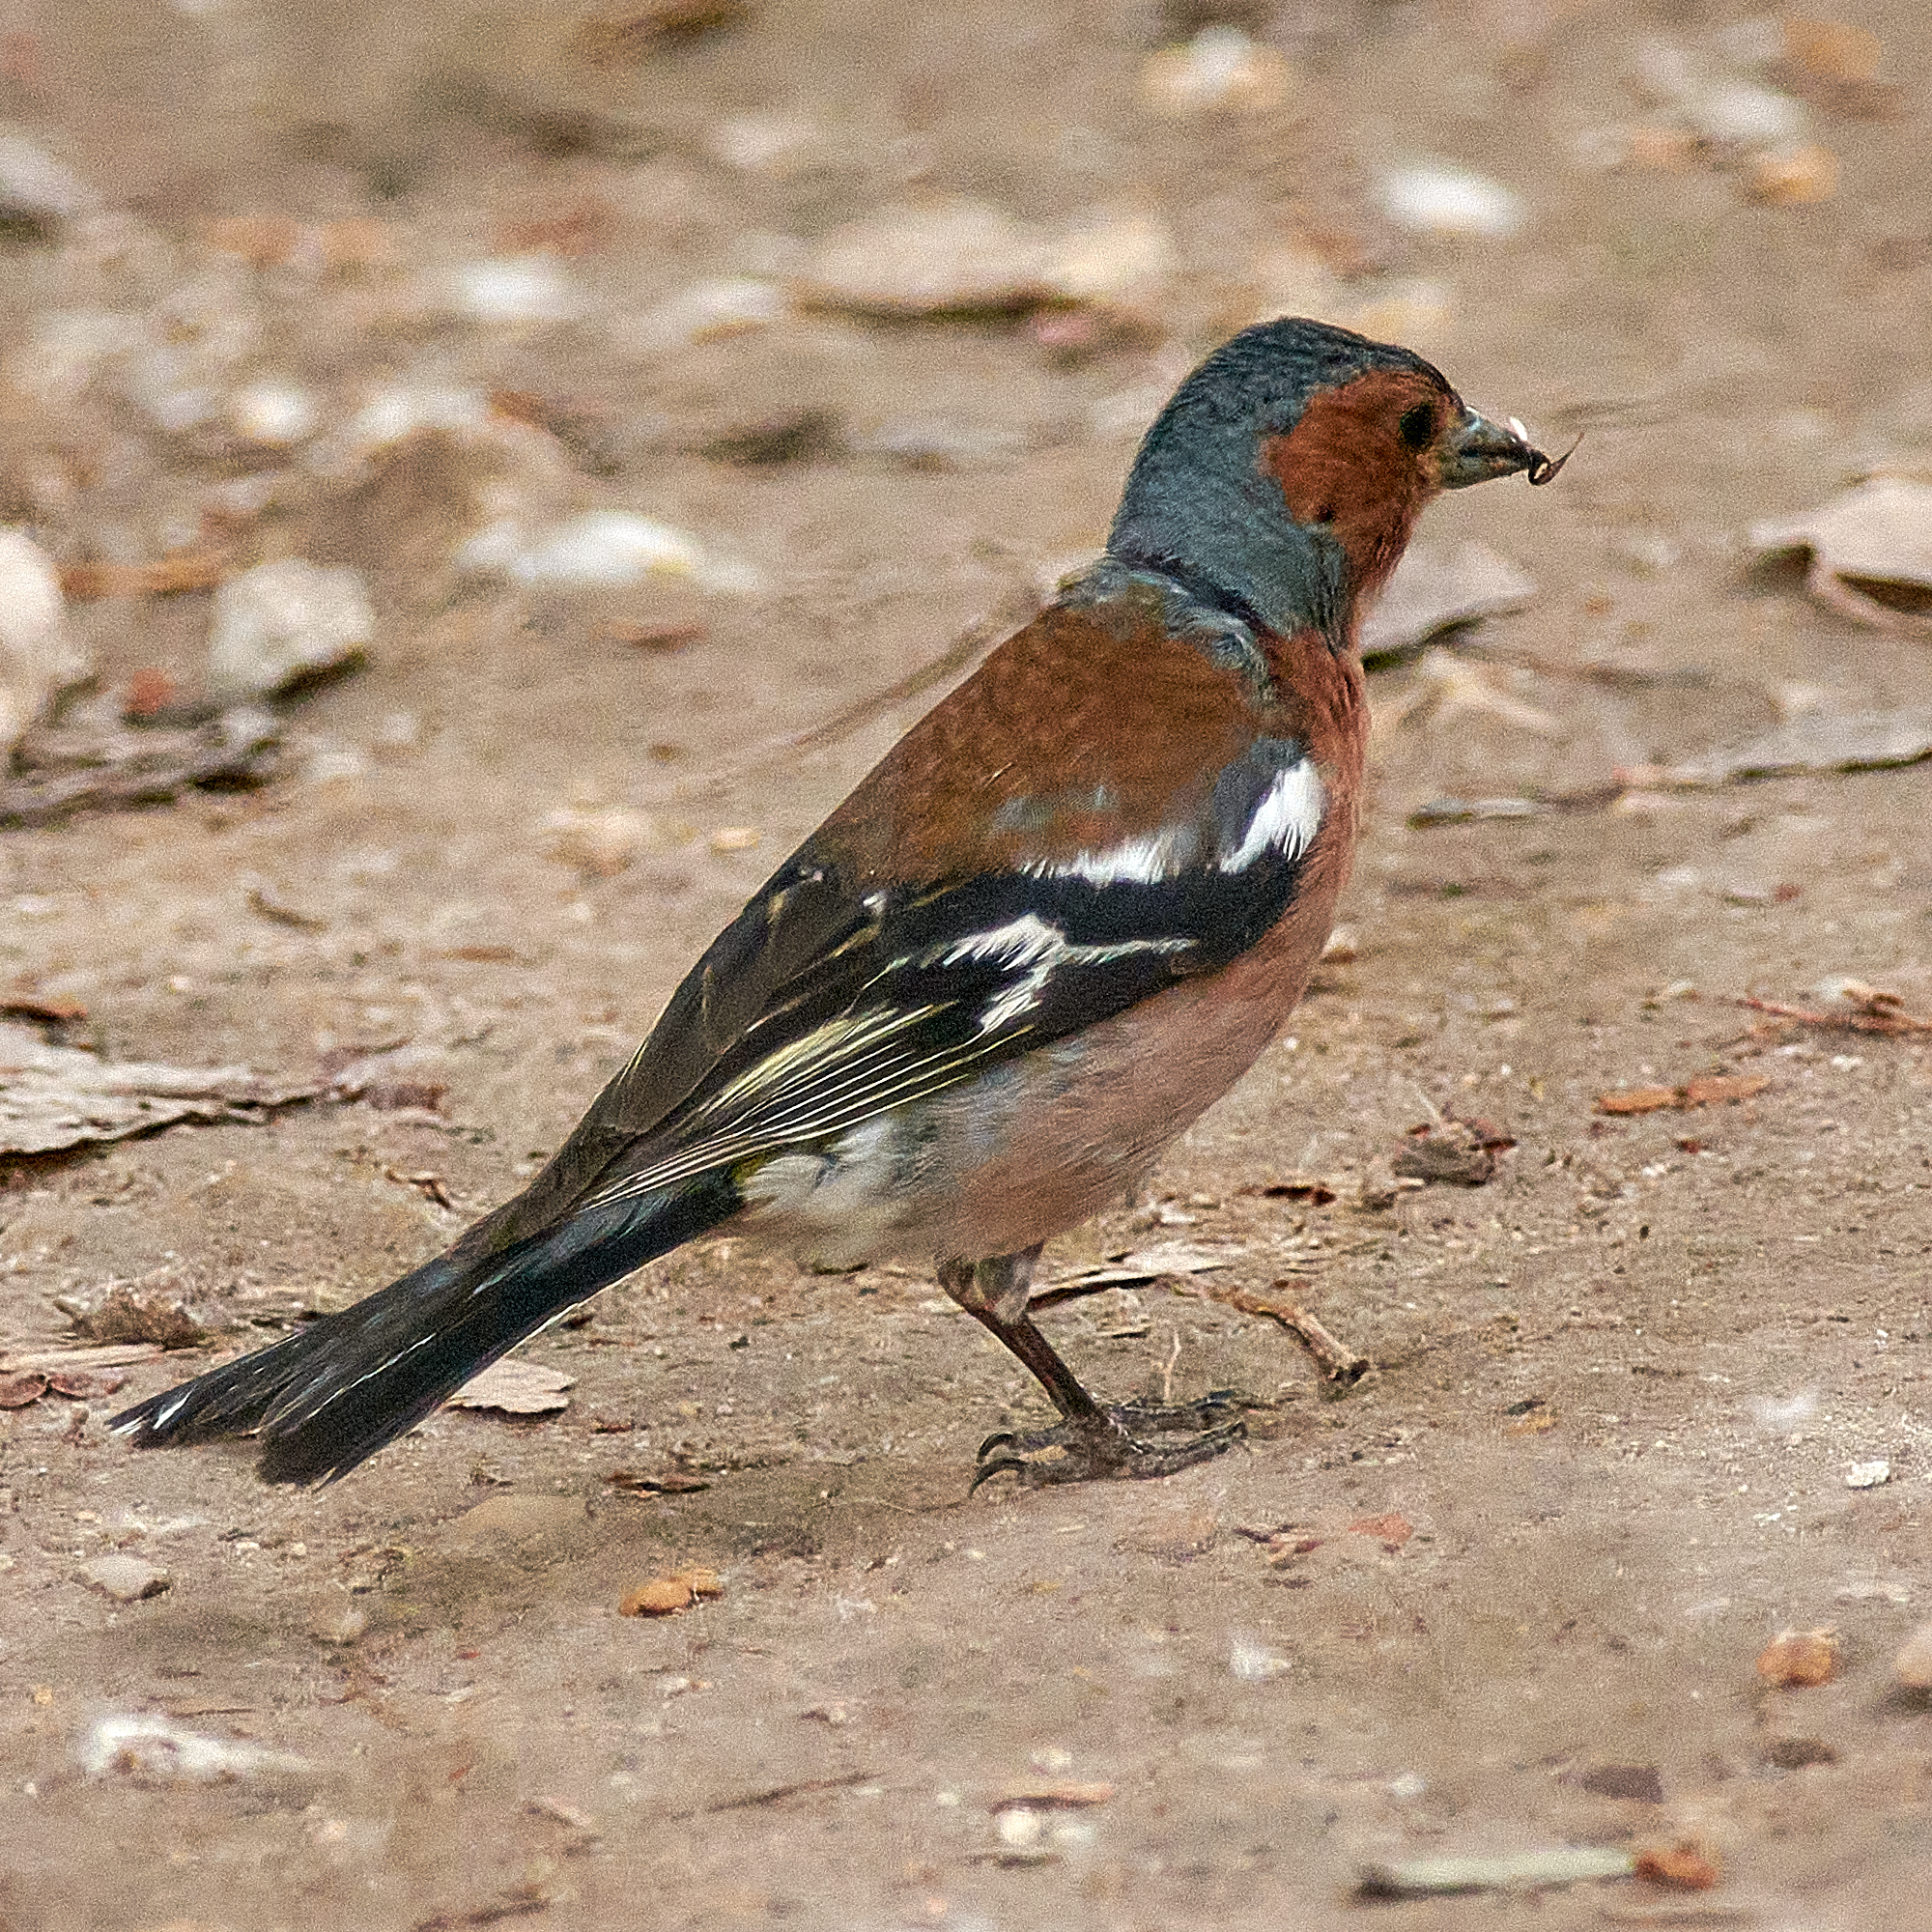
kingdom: Animalia
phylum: Chordata
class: Aves
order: Passeriformes
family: Fringillidae
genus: Fringilla
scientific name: Fringilla coelebs
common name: Common chaffinch
